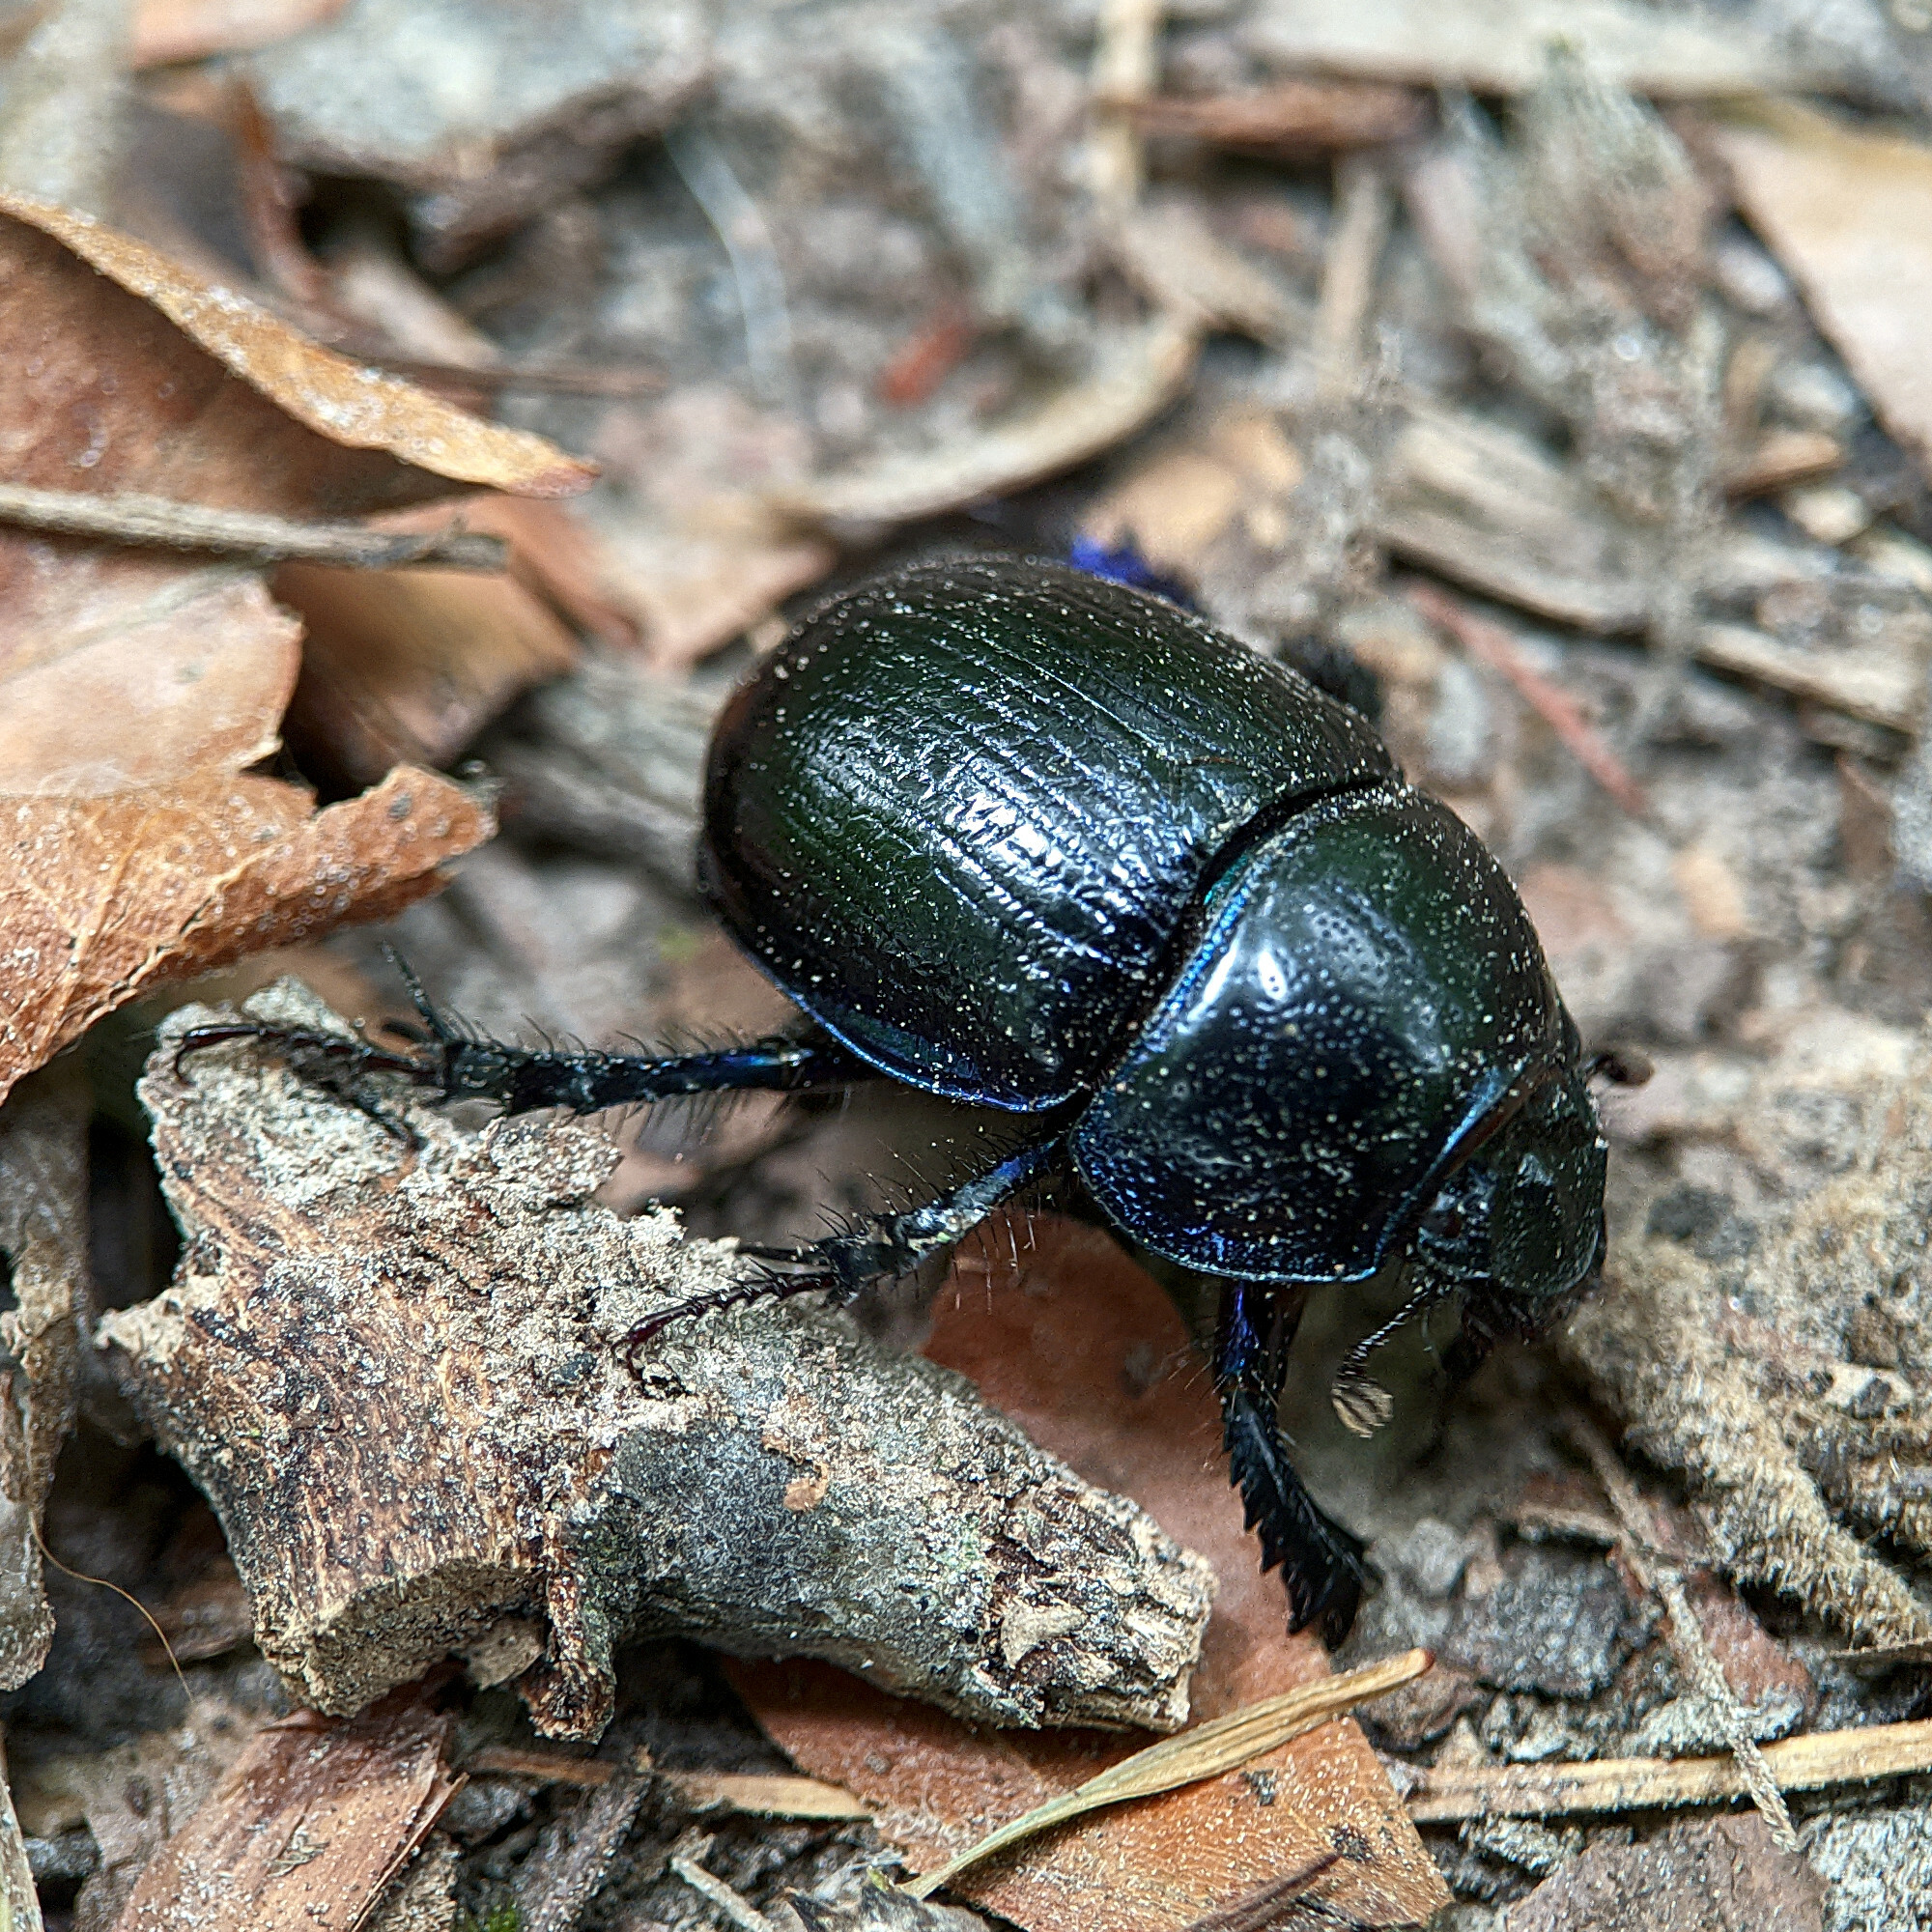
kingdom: Animalia
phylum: Arthropoda
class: Insecta
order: Coleoptera
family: Geotrupidae
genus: Anoplotrupes
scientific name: Anoplotrupes stercorosus
